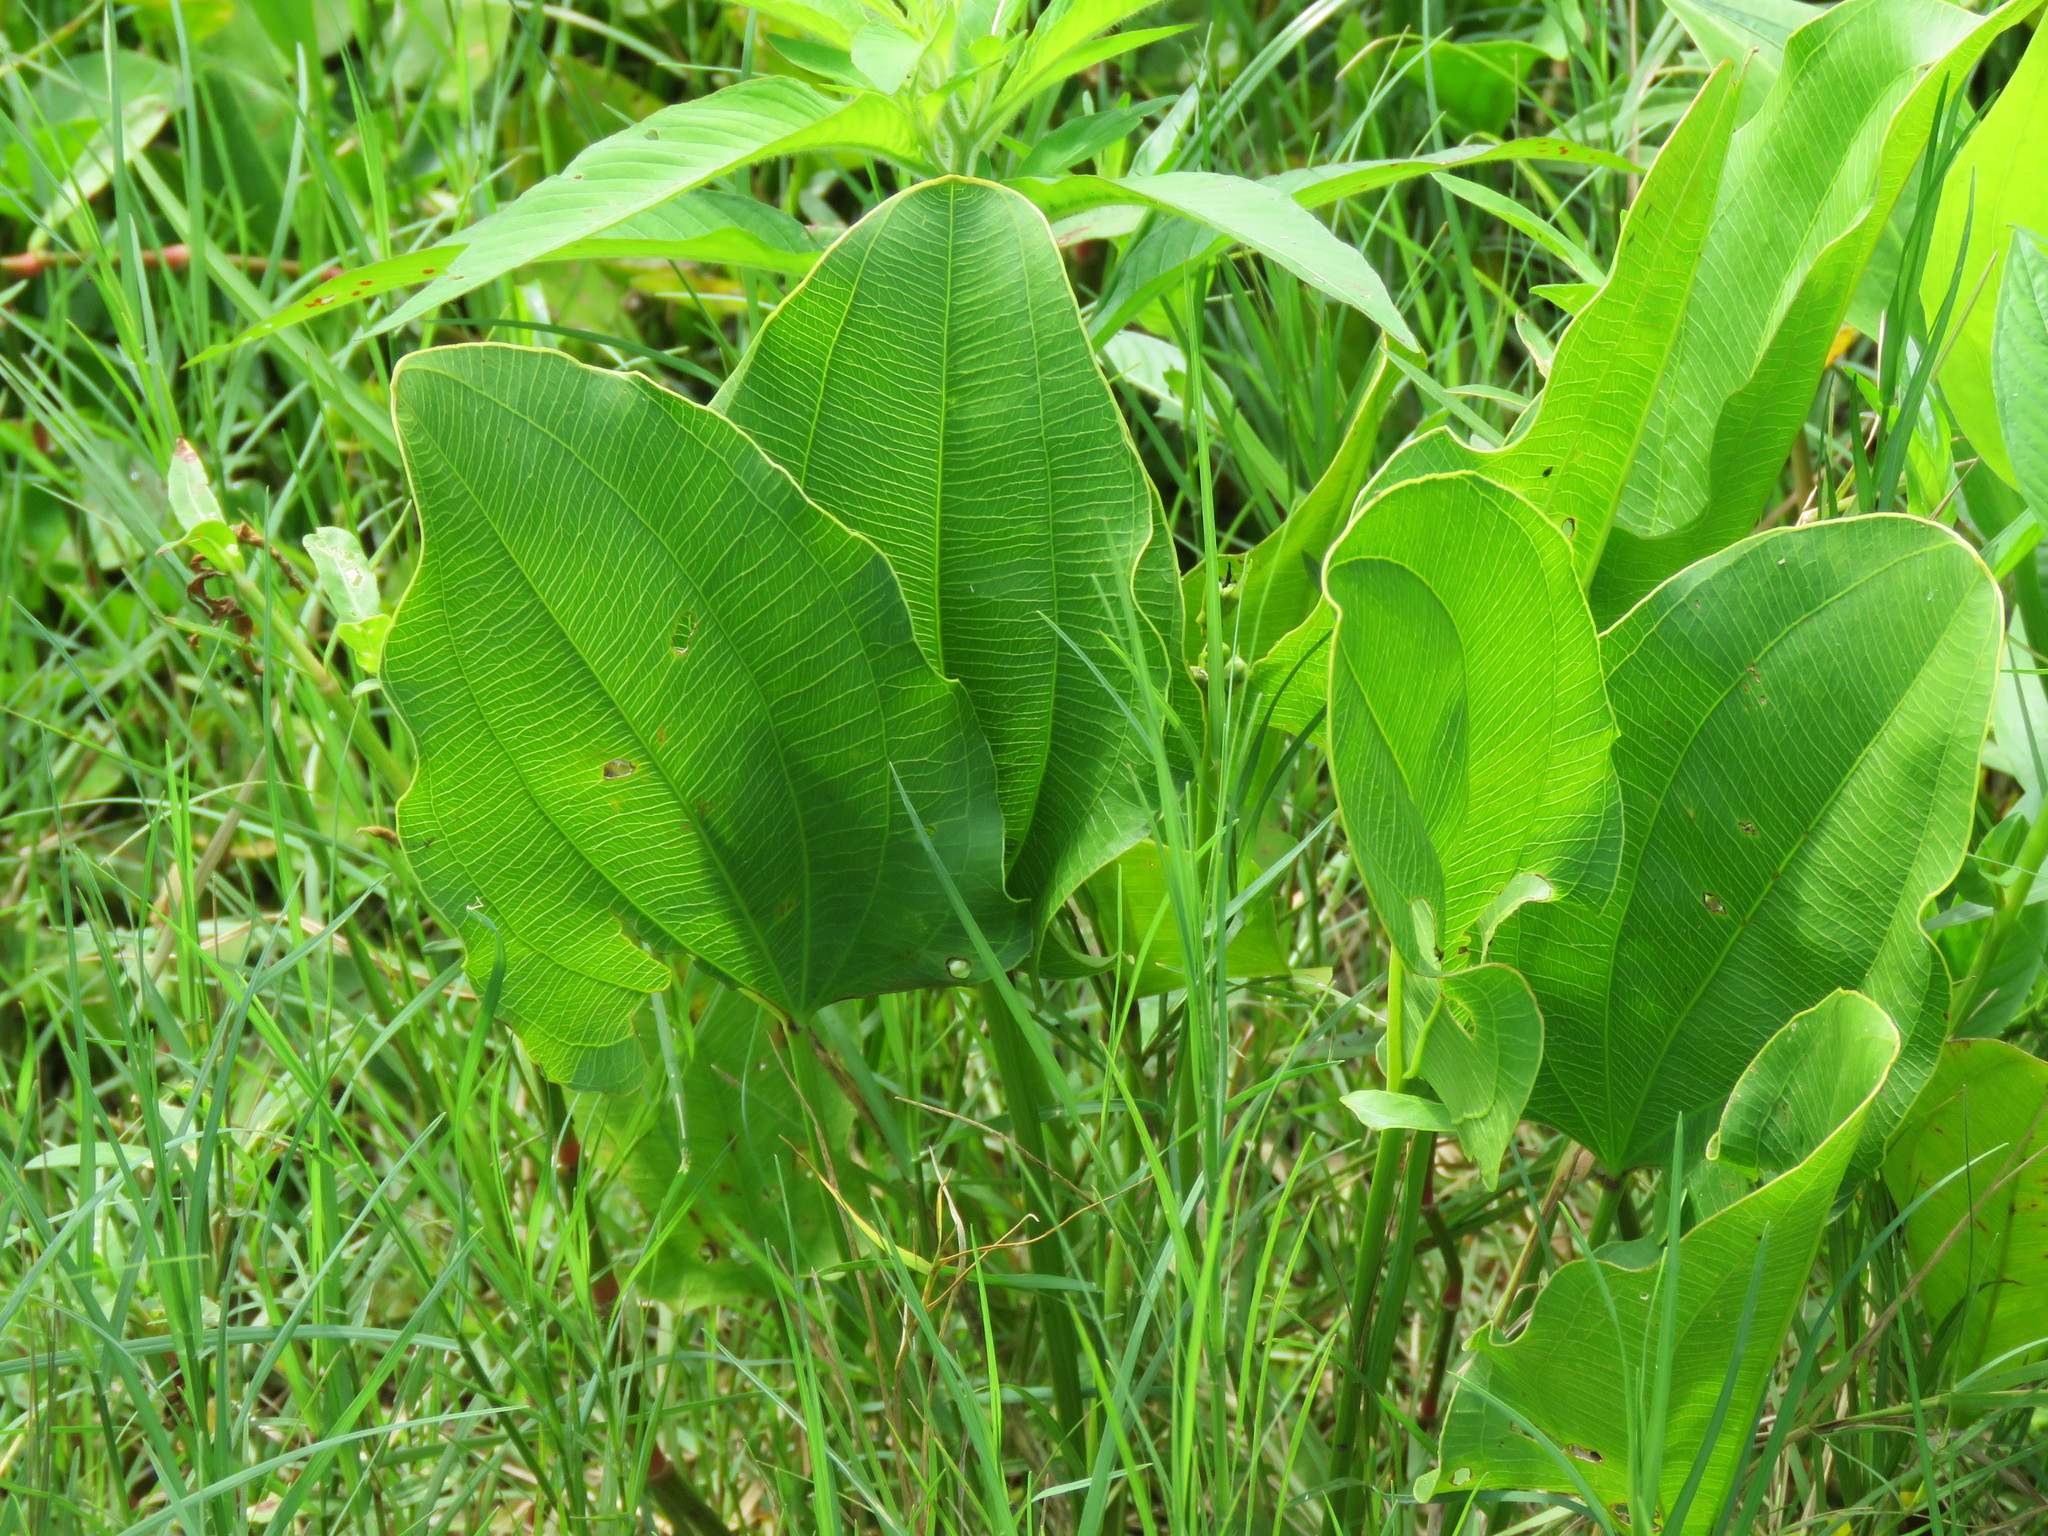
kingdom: Plantae
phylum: Tracheophyta
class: Liliopsida
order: Alismatales
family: Alismataceae
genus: Aquarius
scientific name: Aquarius cordifolius
